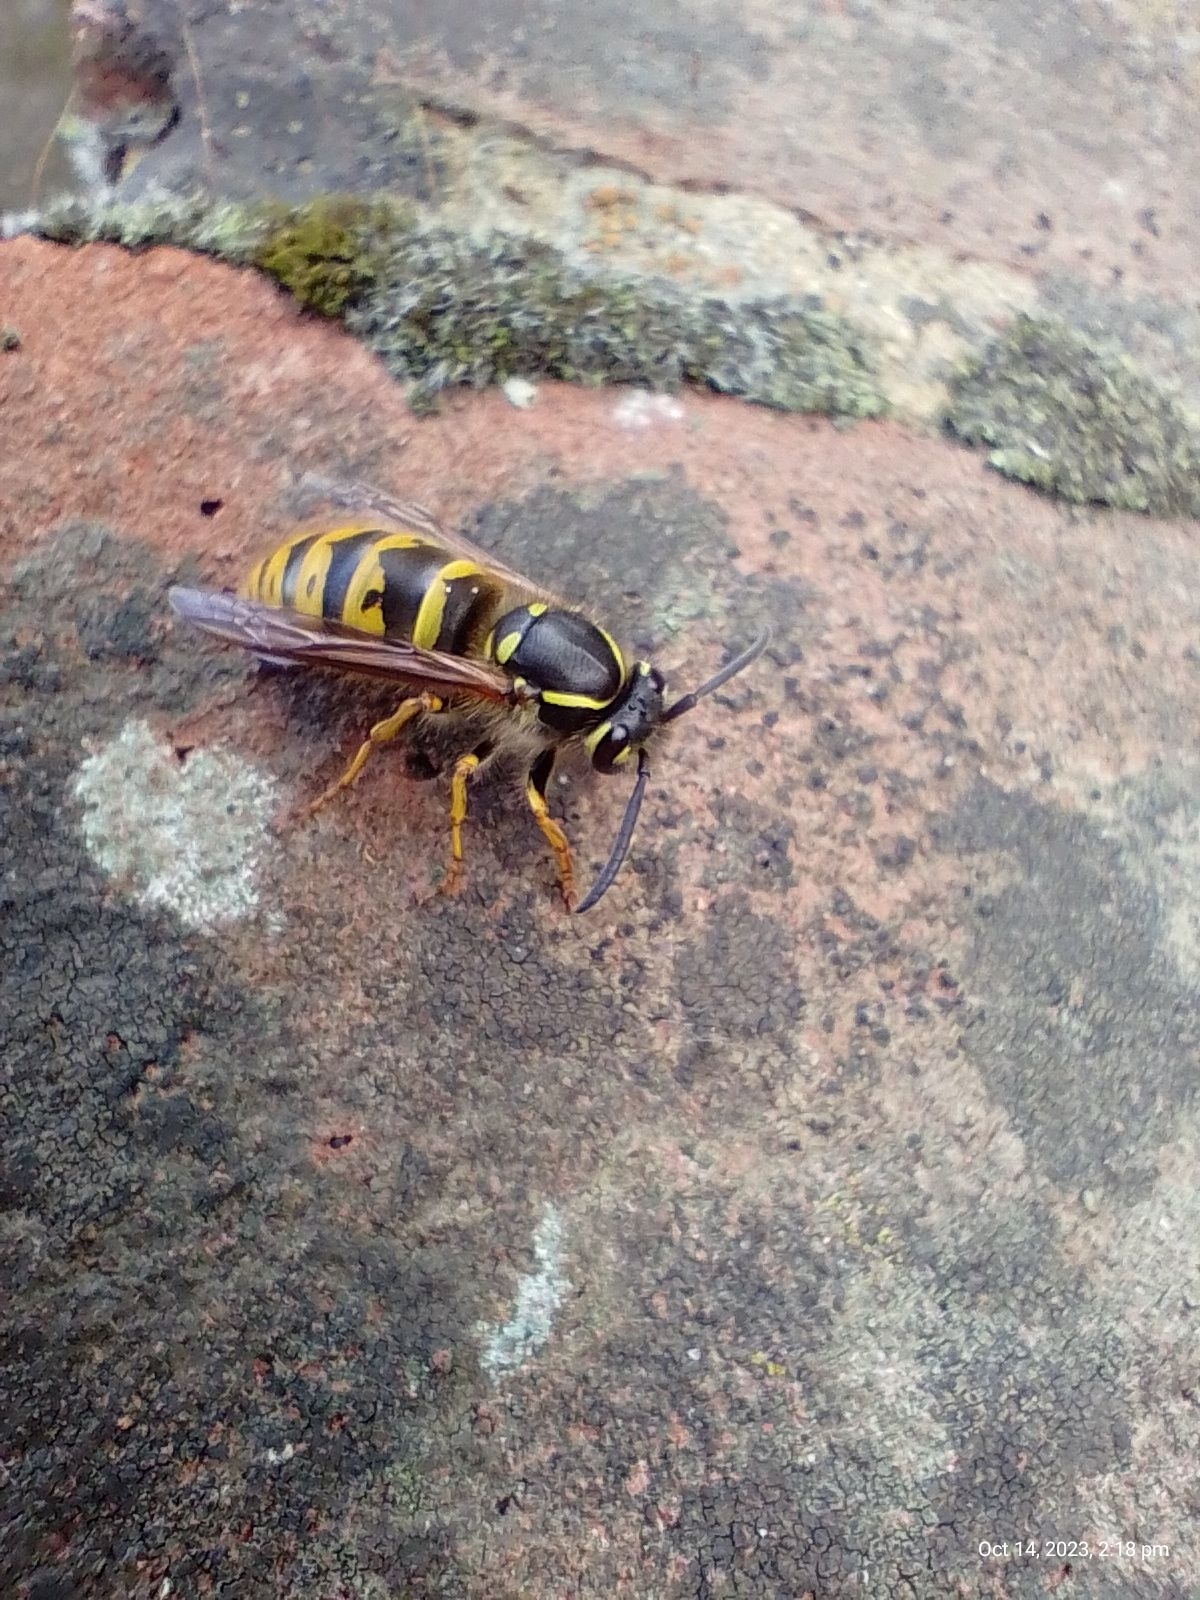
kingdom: Animalia
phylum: Arthropoda
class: Insecta
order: Hymenoptera
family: Vespidae
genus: Vespula
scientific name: Vespula vulgaris
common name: Common wasp
